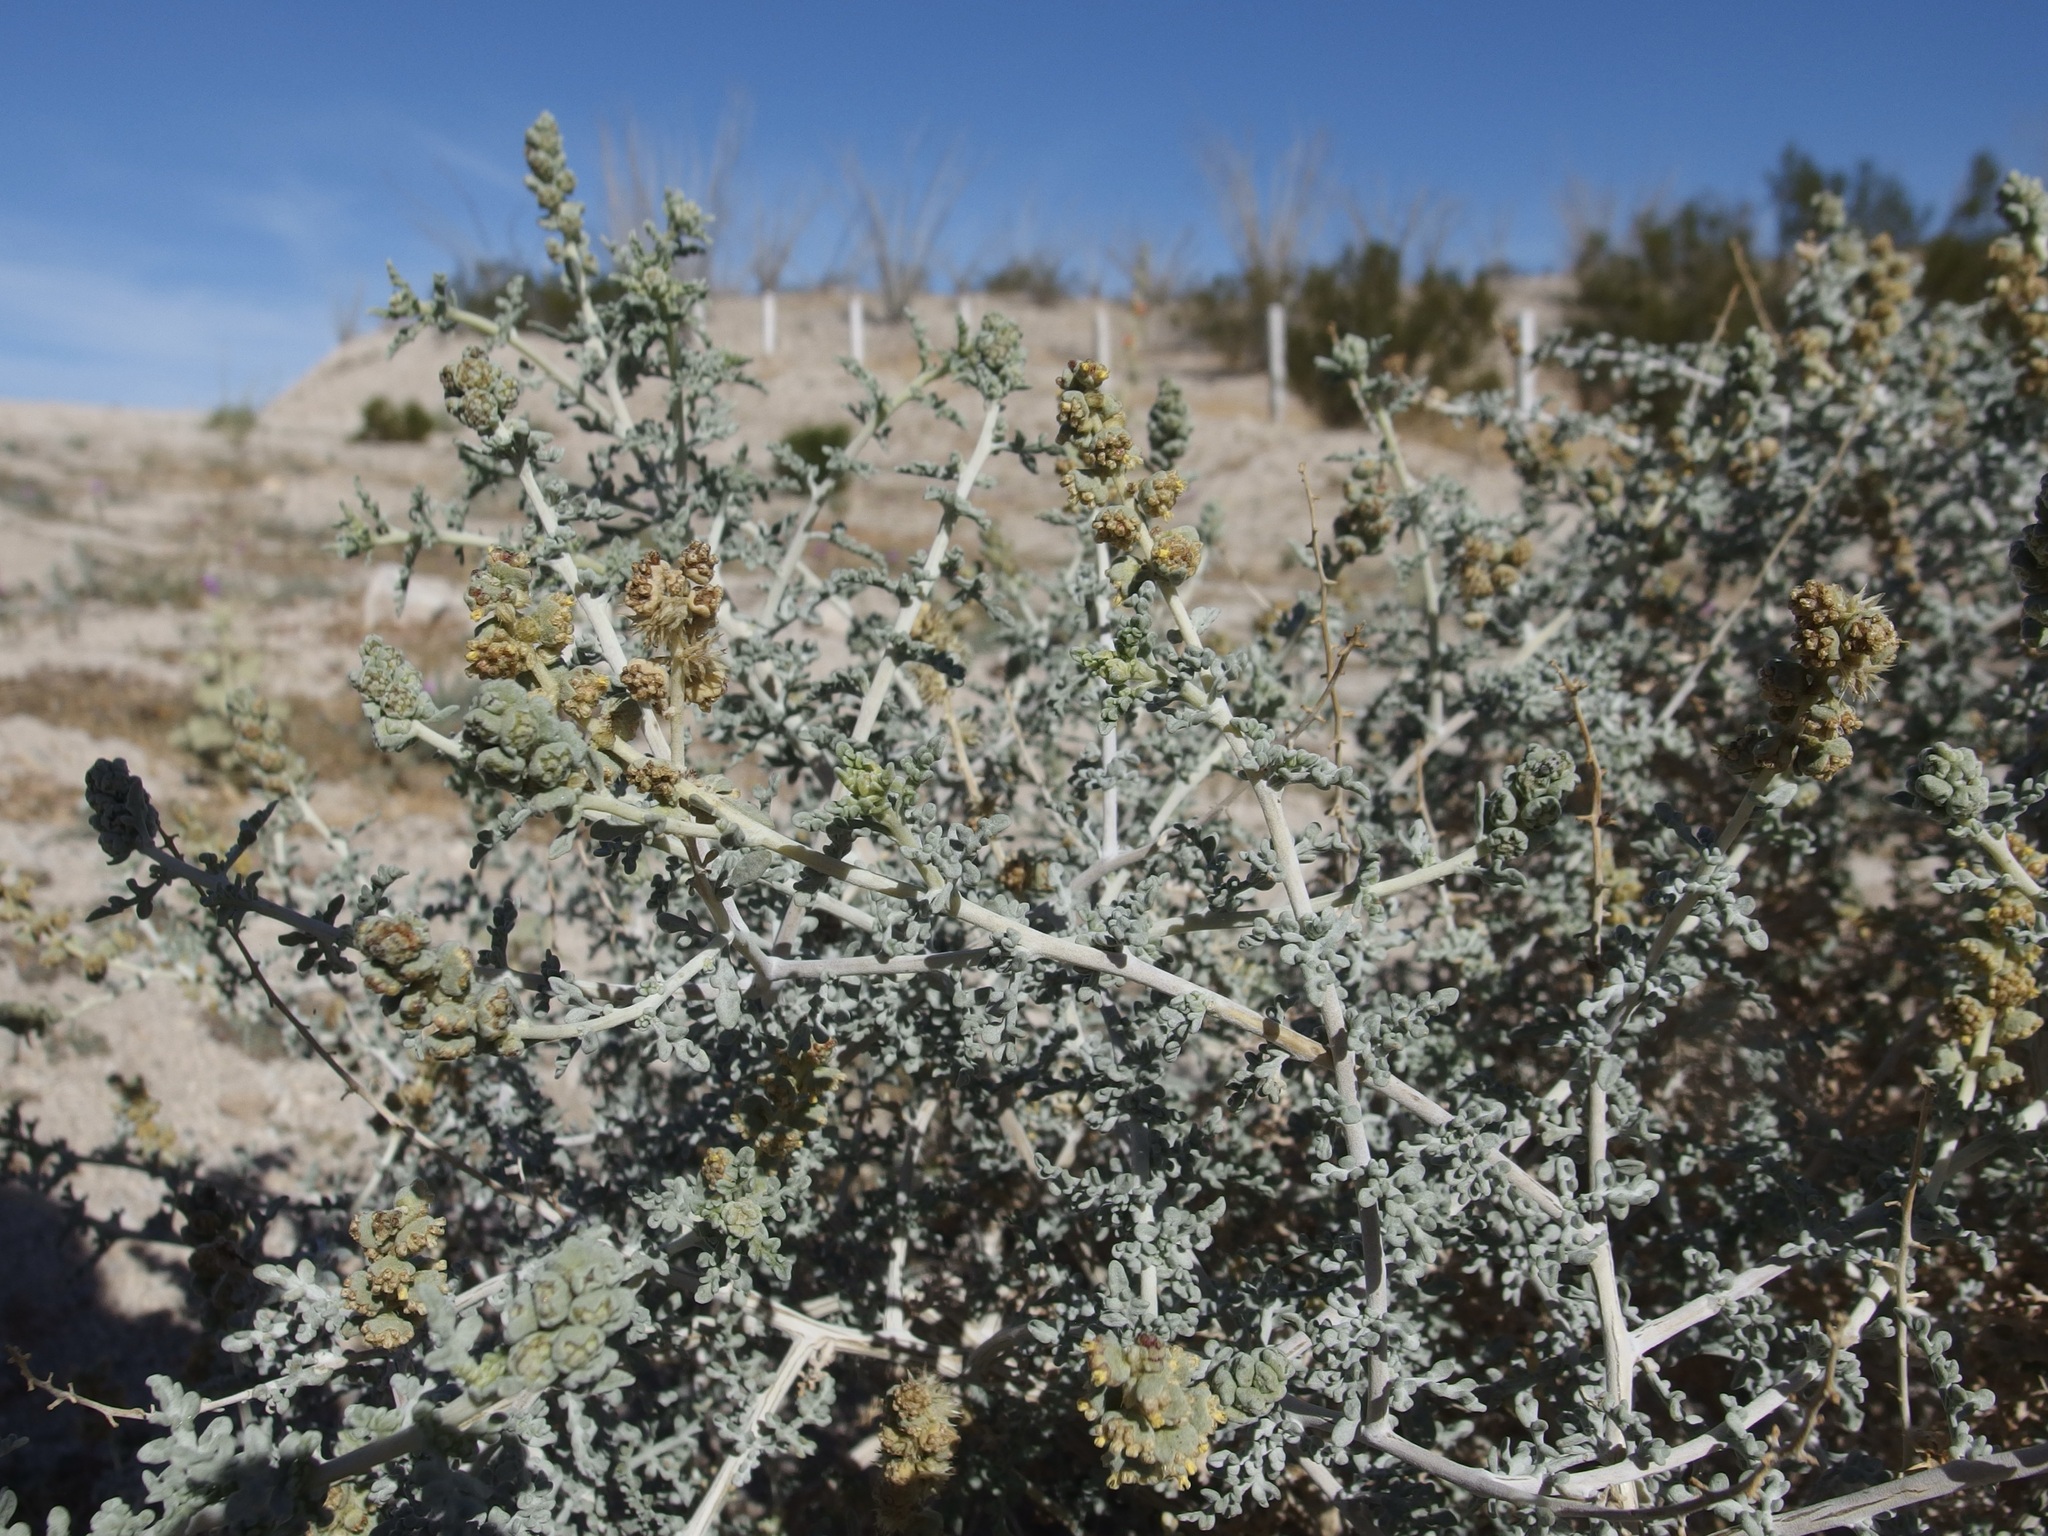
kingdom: Plantae
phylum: Tracheophyta
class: Magnoliopsida
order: Asterales
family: Asteraceae
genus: Ambrosia
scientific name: Ambrosia dumosa
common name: Bur-sage
